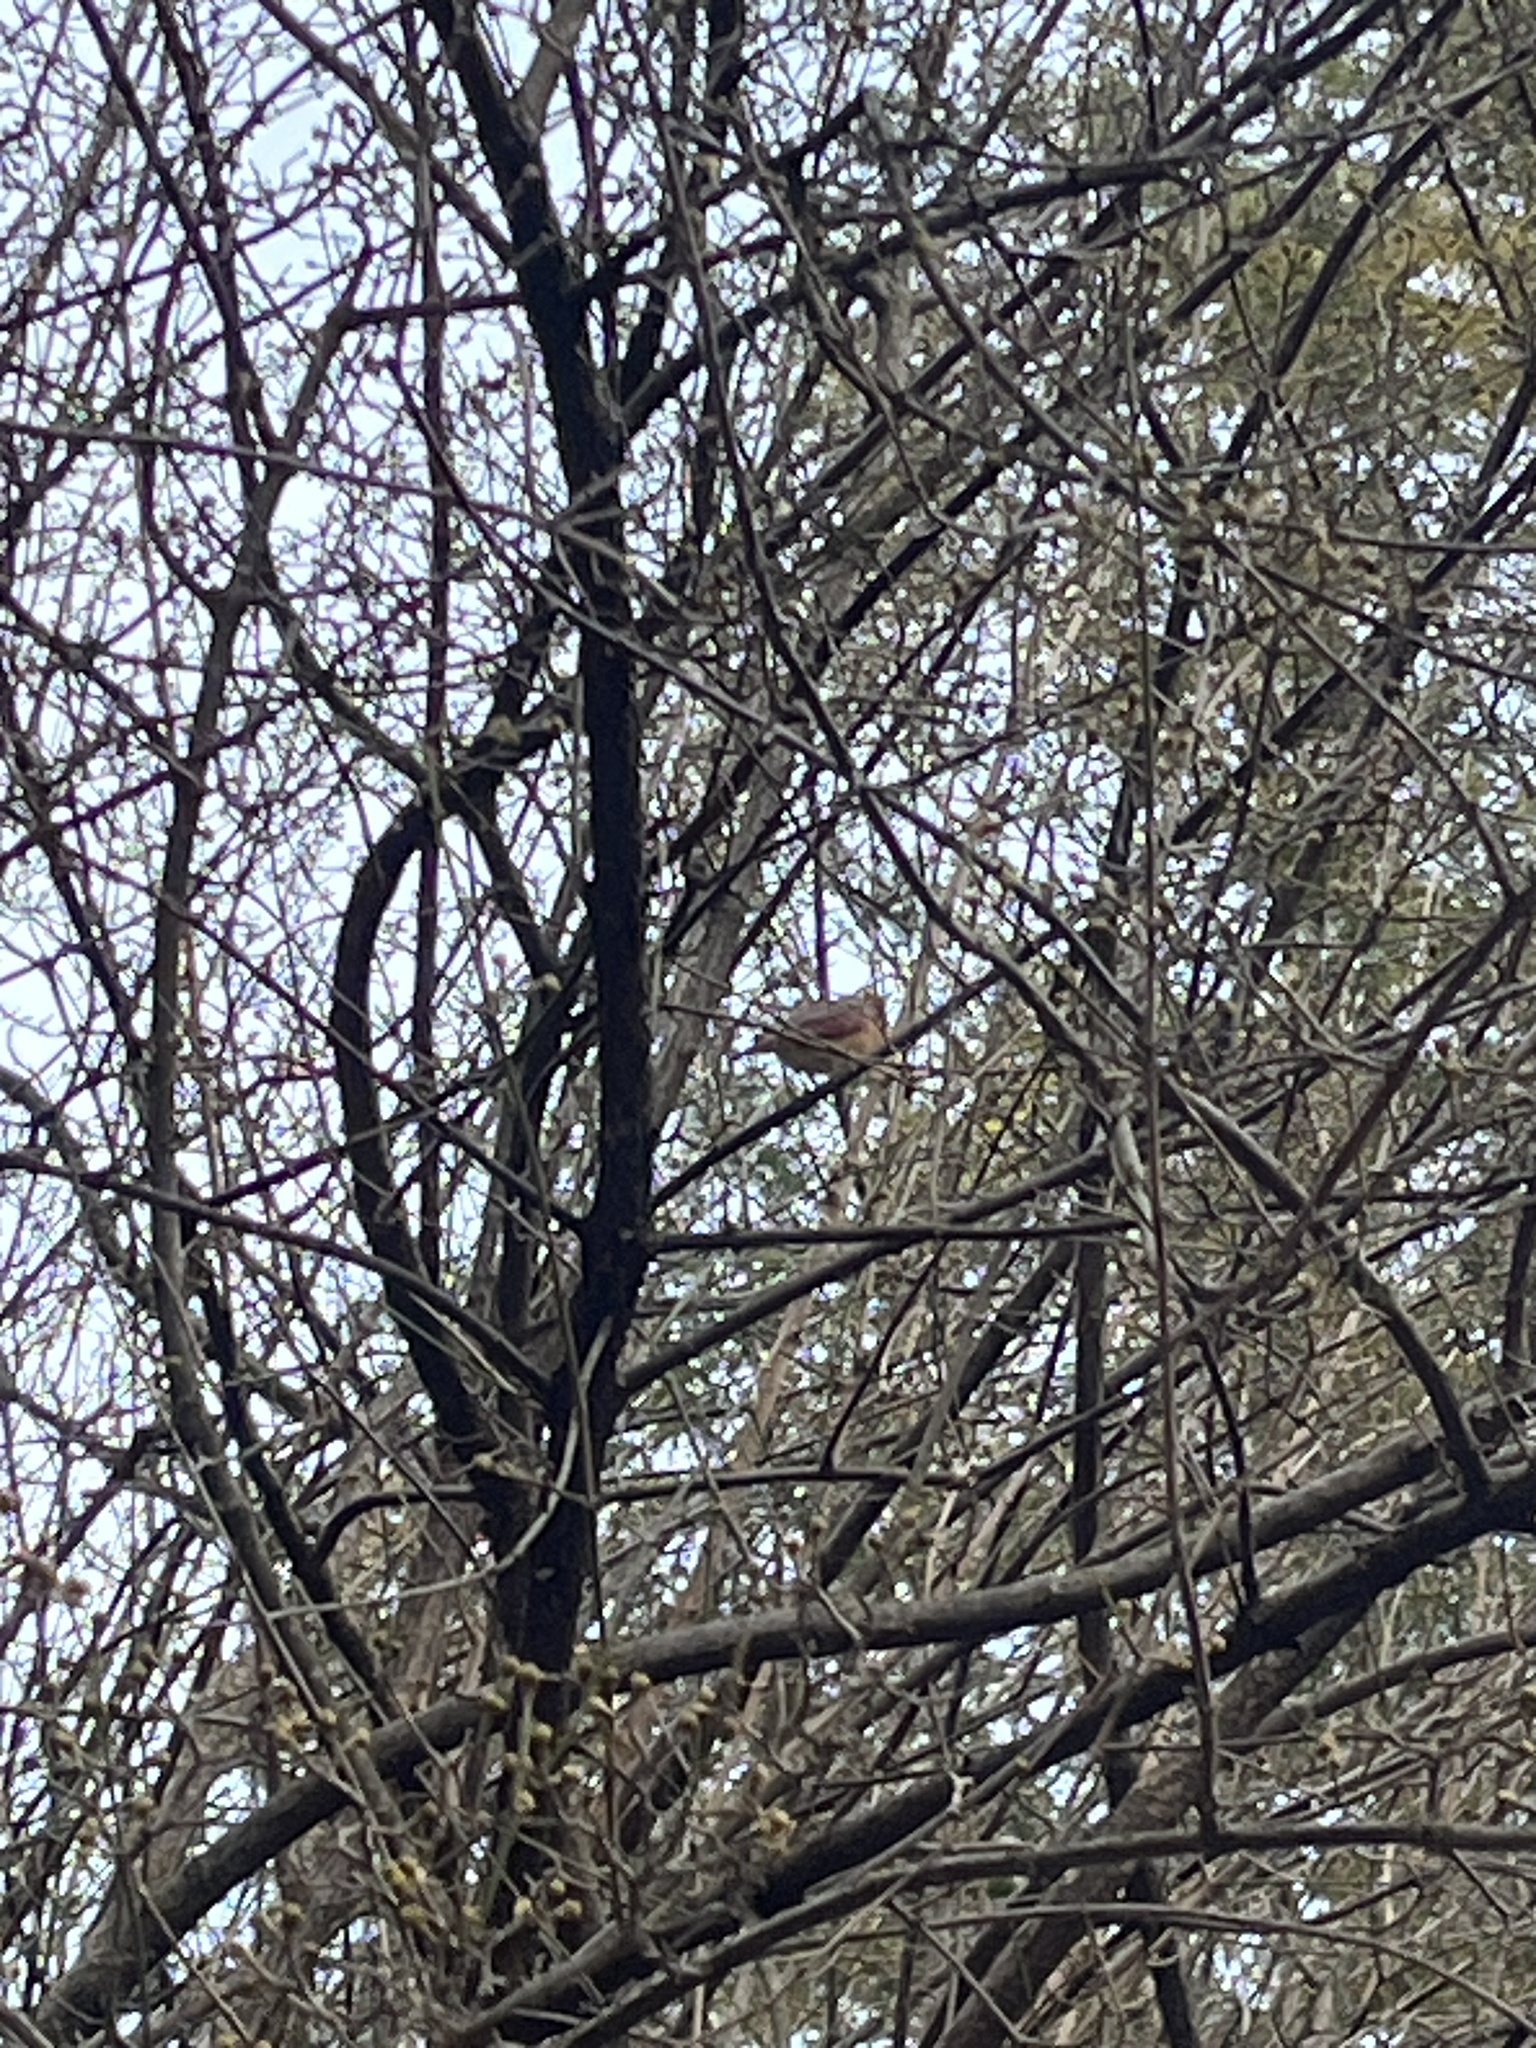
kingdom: Animalia
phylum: Chordata
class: Aves
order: Passeriformes
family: Cardinalidae
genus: Cardinalis
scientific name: Cardinalis cardinalis
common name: Northern cardinal
